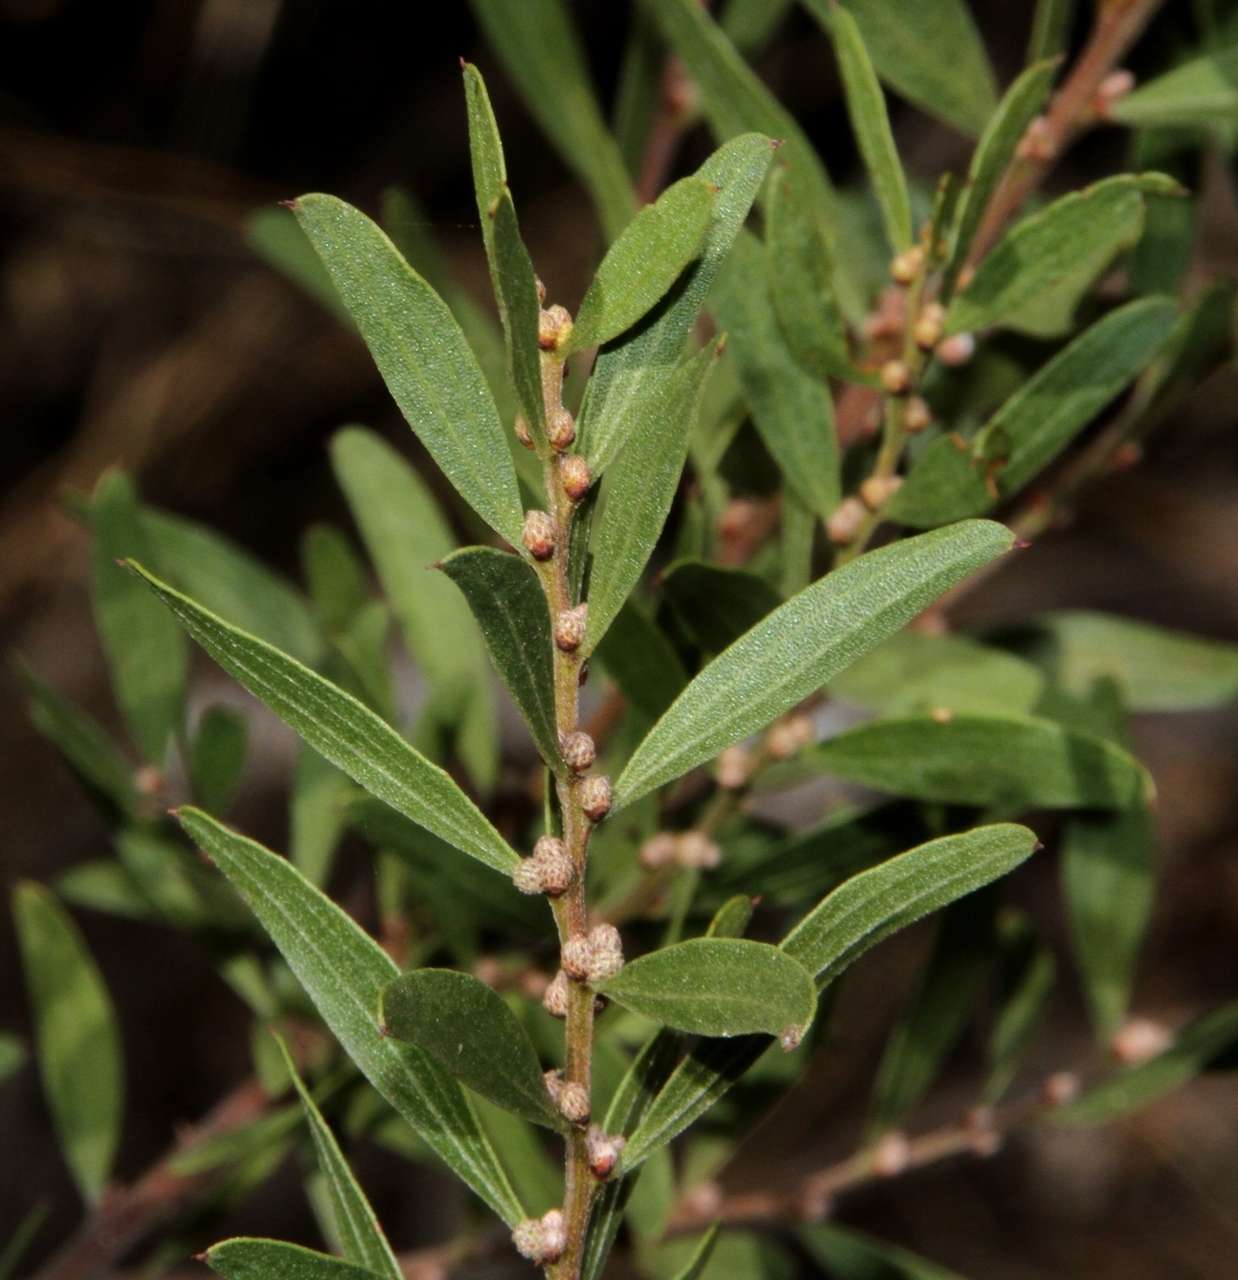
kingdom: Plantae
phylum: Tracheophyta
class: Magnoliopsida
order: Fabales
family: Fabaceae
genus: Acacia
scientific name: Acacia rostriformis
